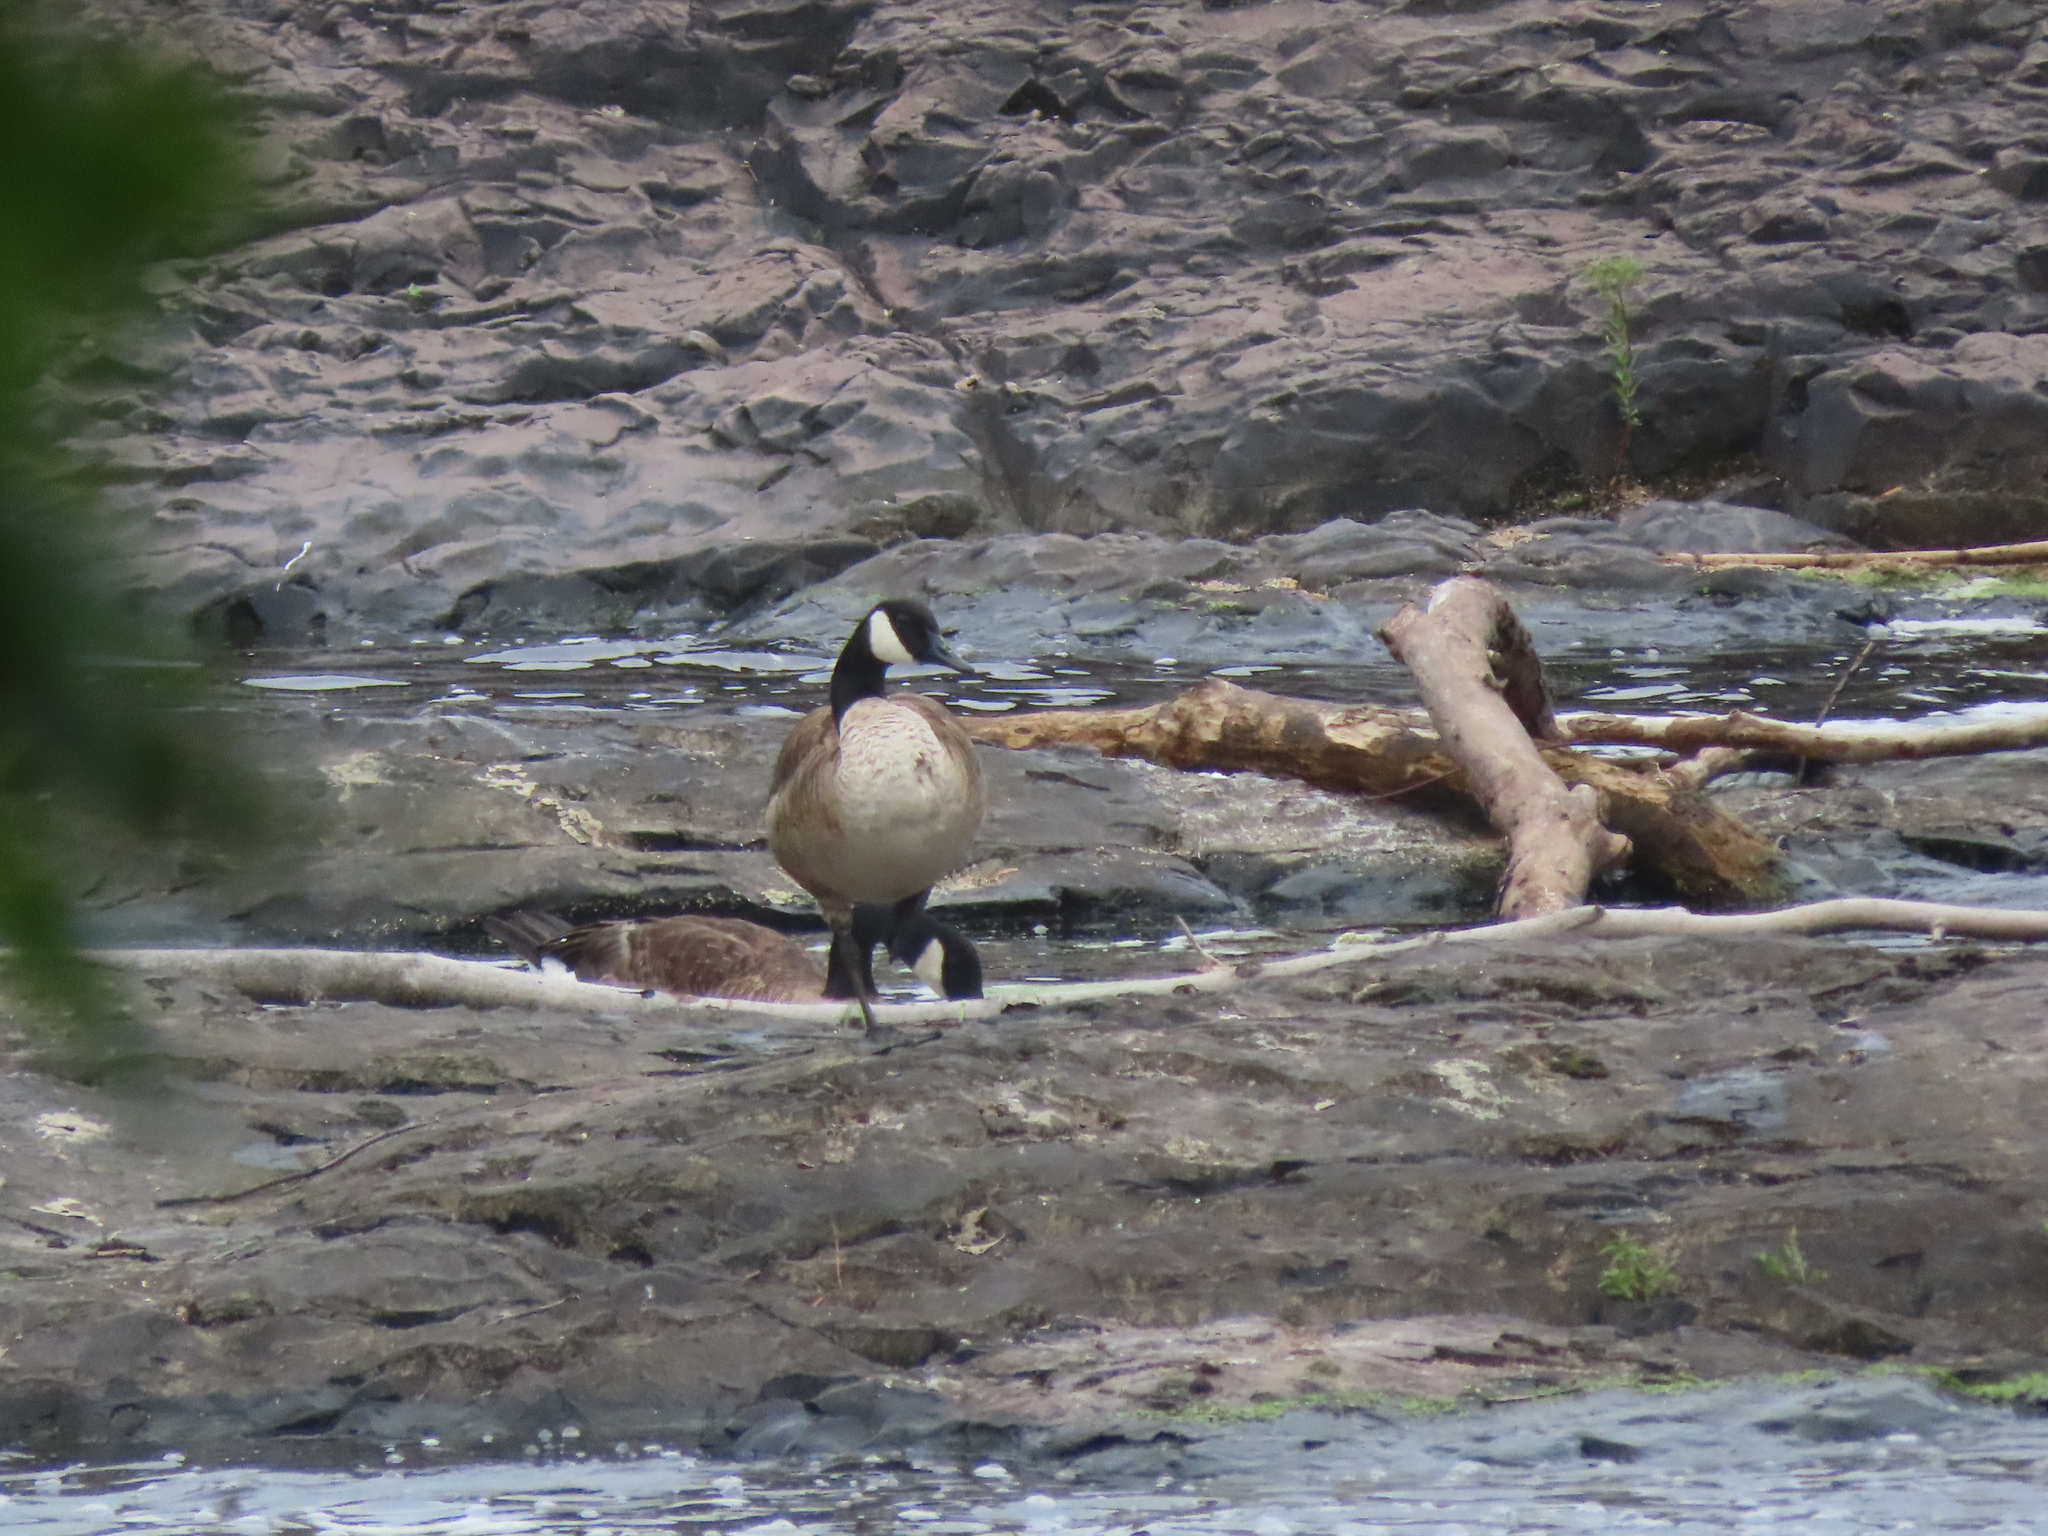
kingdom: Animalia
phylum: Chordata
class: Aves
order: Anseriformes
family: Anatidae
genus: Branta
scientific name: Branta canadensis
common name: Canada goose
